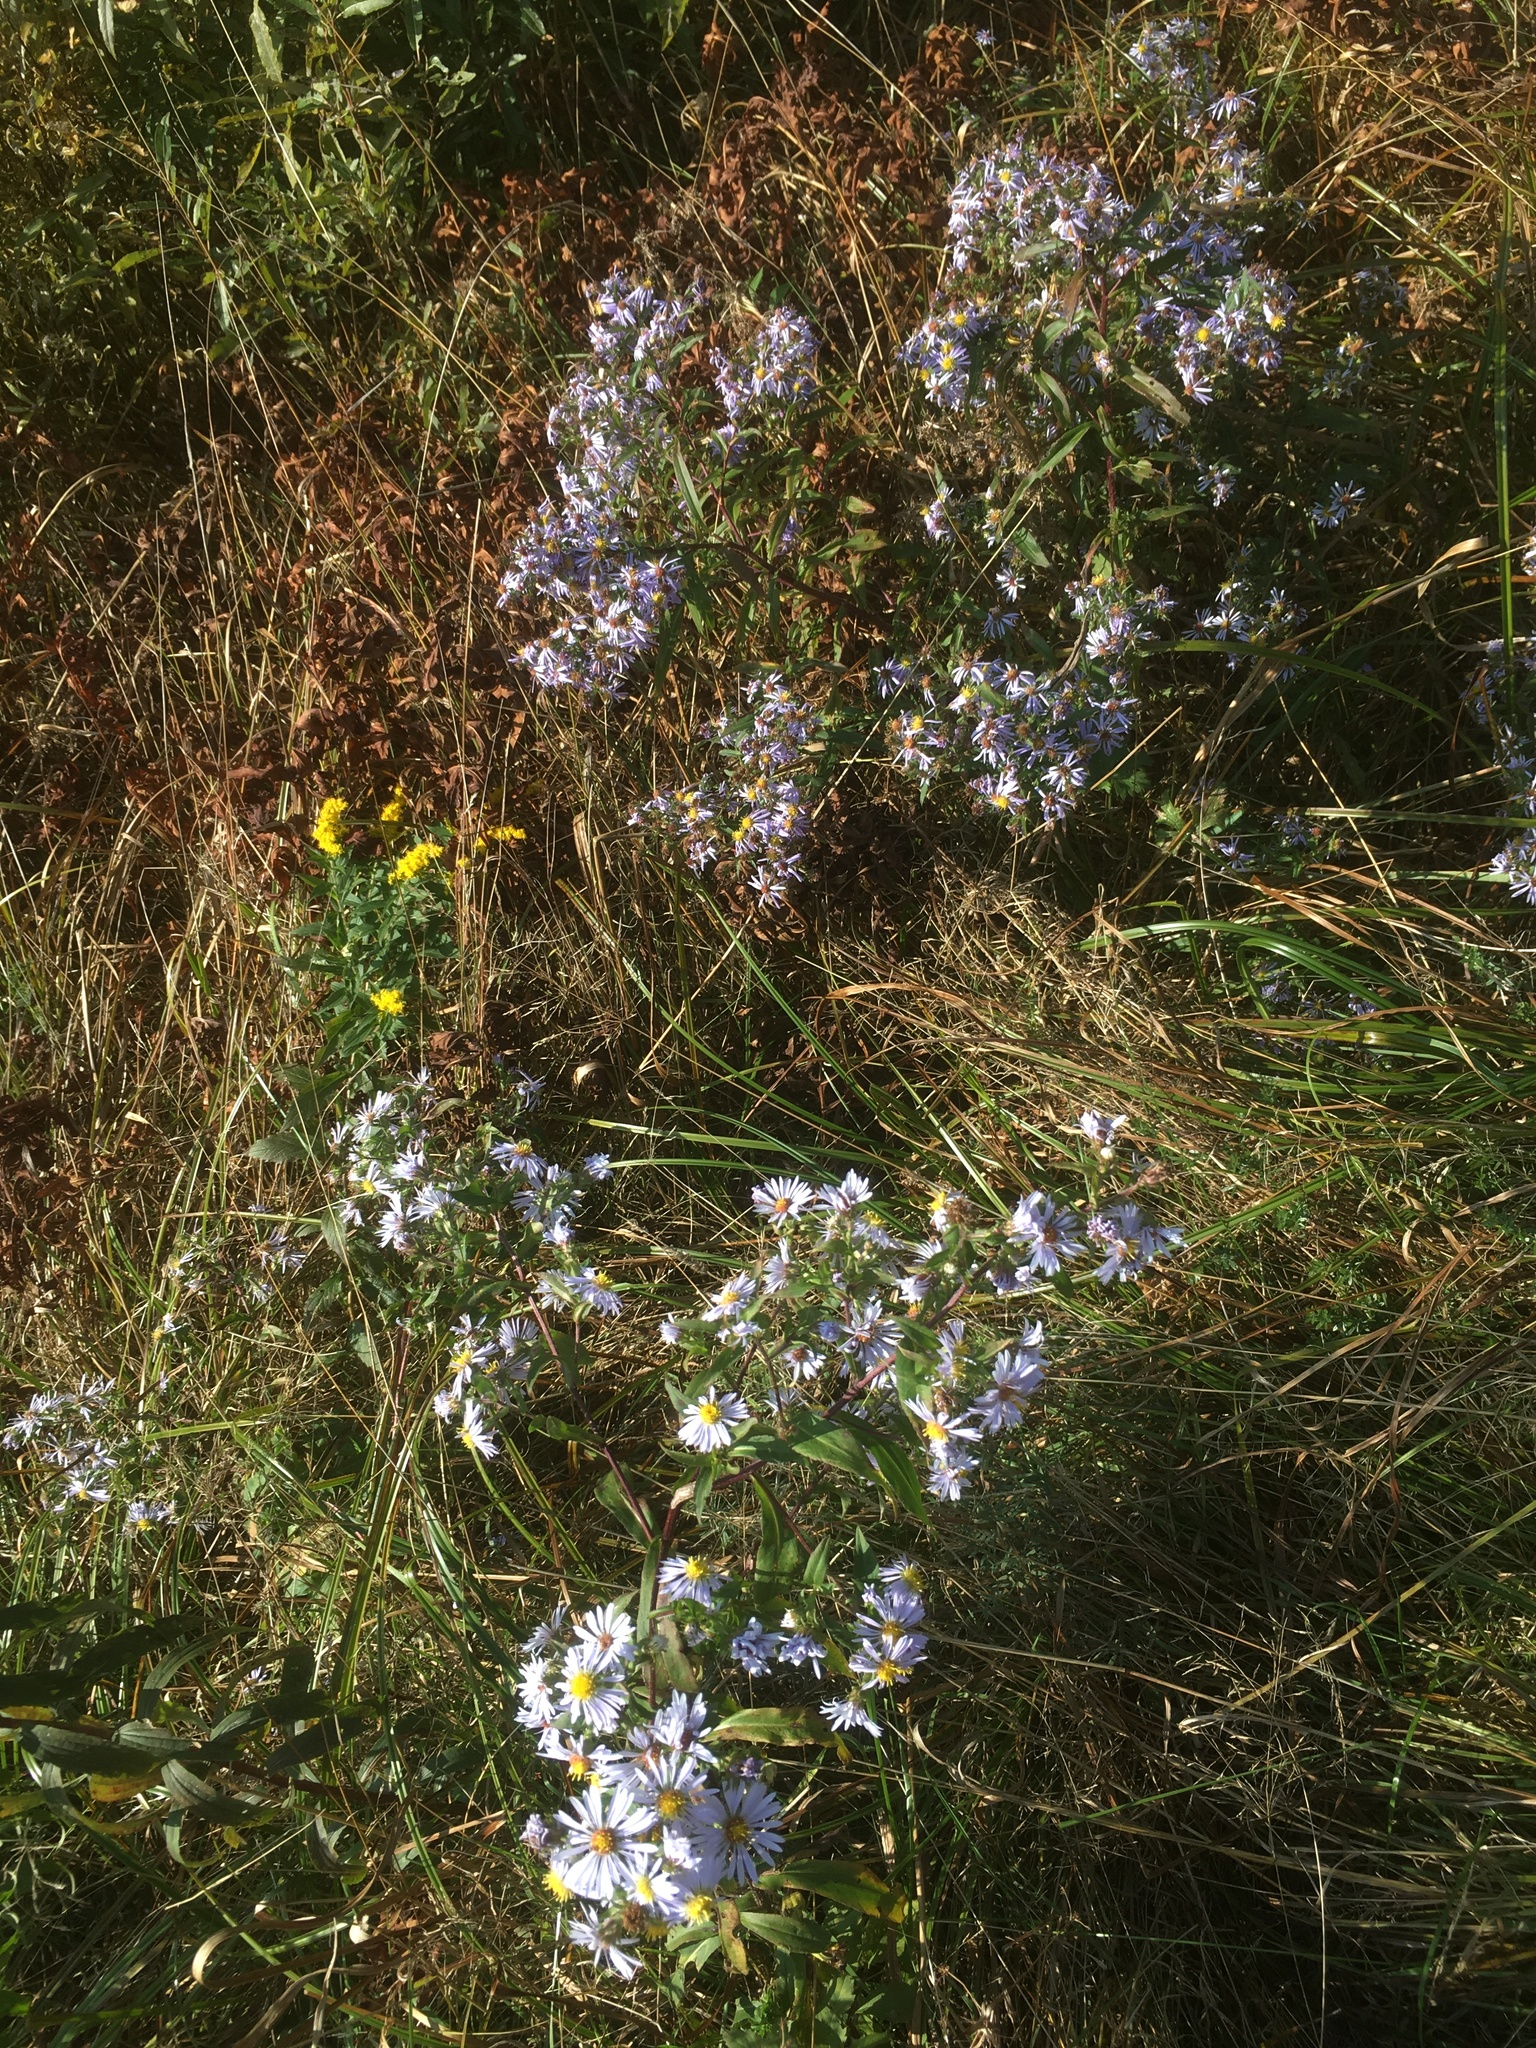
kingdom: Plantae
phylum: Tracheophyta
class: Magnoliopsida
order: Asterales
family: Asteraceae
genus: Symphyotrichum
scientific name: Symphyotrichum puniceum
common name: Bog aster
